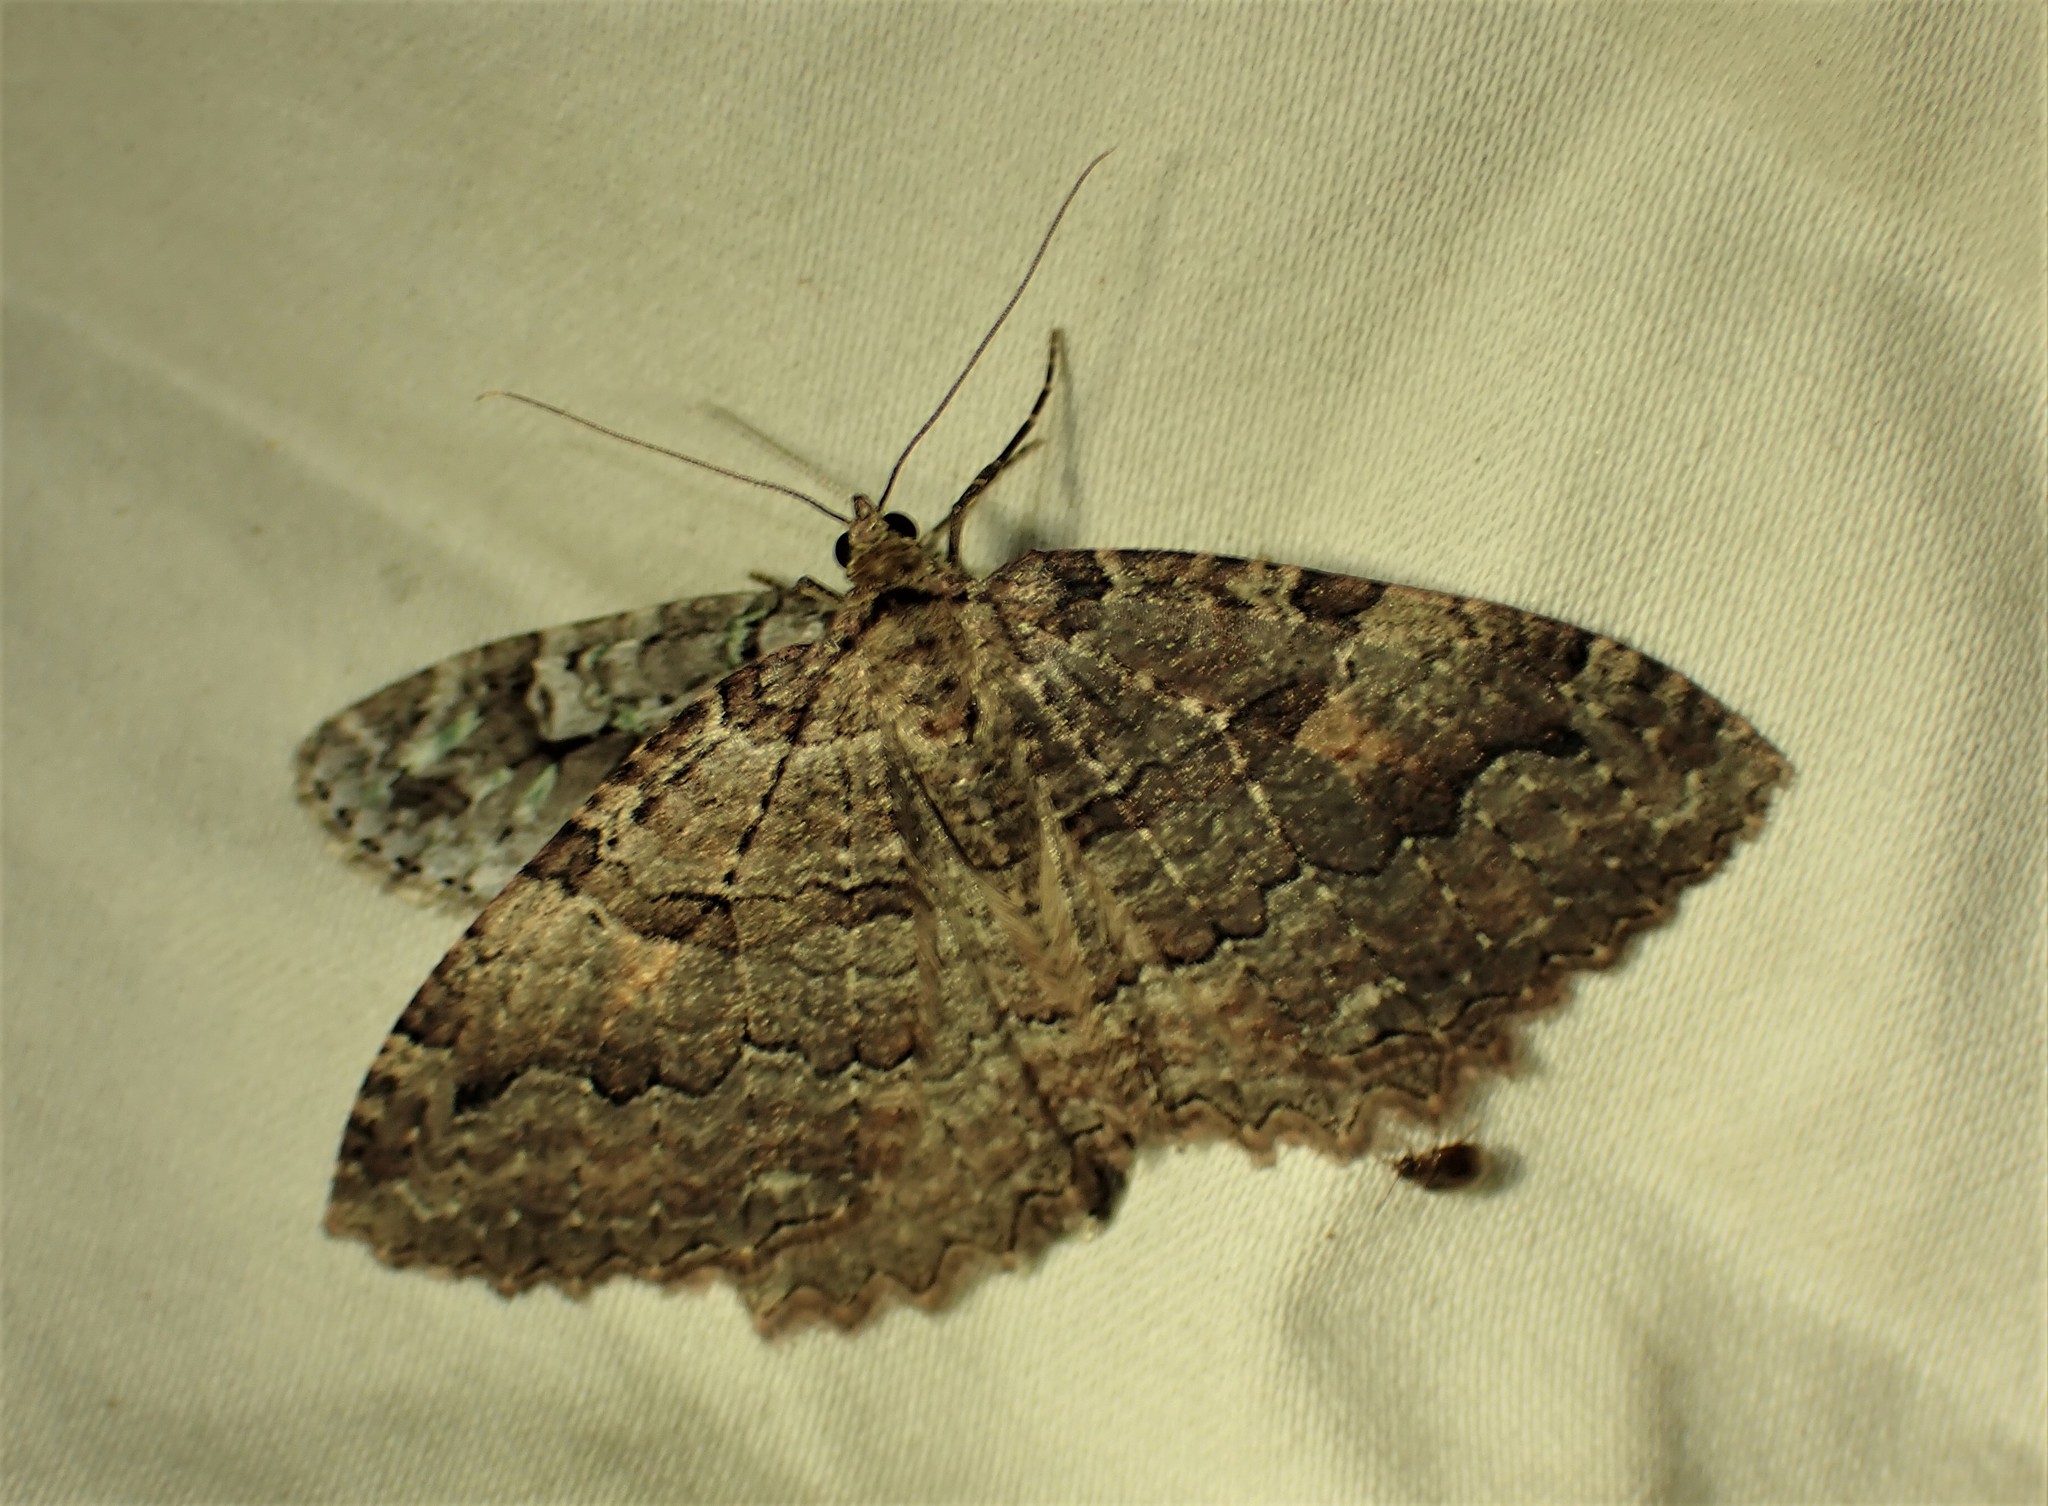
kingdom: Animalia
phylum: Arthropoda
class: Insecta
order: Lepidoptera
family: Geometridae
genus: Triphosa
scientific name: Triphosa haesitata
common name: Tissue moth
